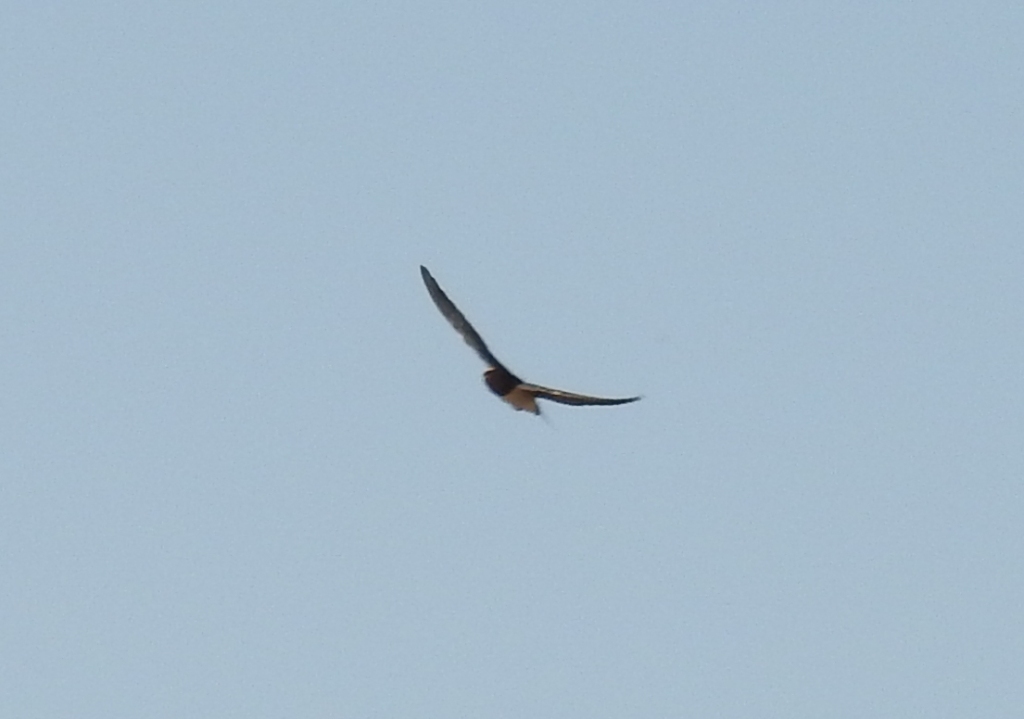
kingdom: Animalia
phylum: Chordata
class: Aves
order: Passeriformes
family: Hirundinidae
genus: Hirundo
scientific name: Hirundo rustica
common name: Barn swallow
